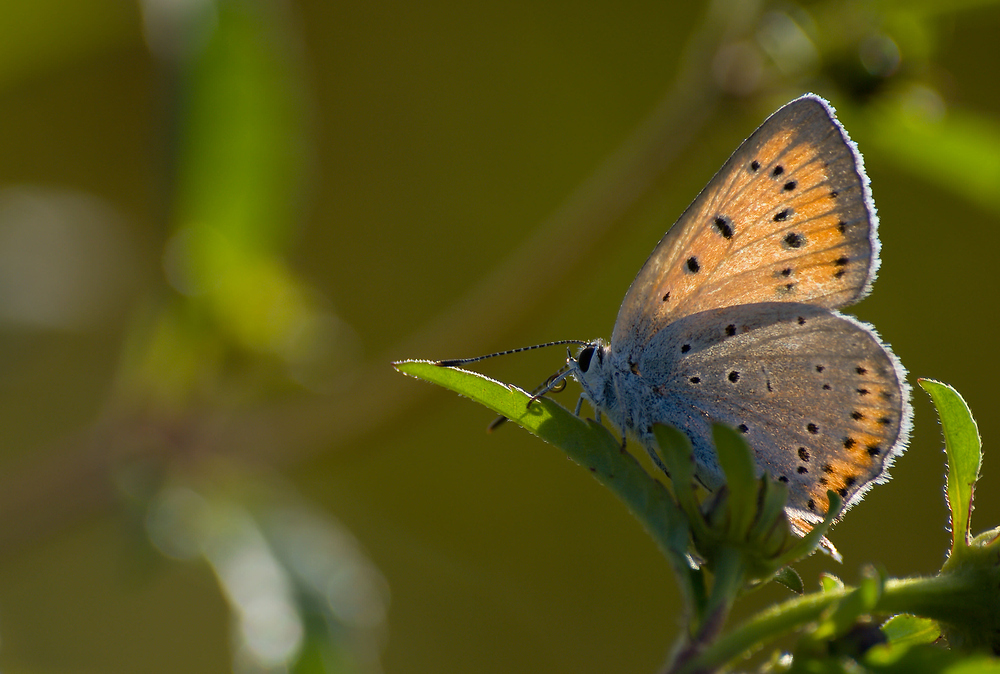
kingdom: Animalia
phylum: Arthropoda
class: Insecta
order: Lepidoptera
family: Lycaenidae
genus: Lycaena
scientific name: Lycaena dispar
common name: Large copper
